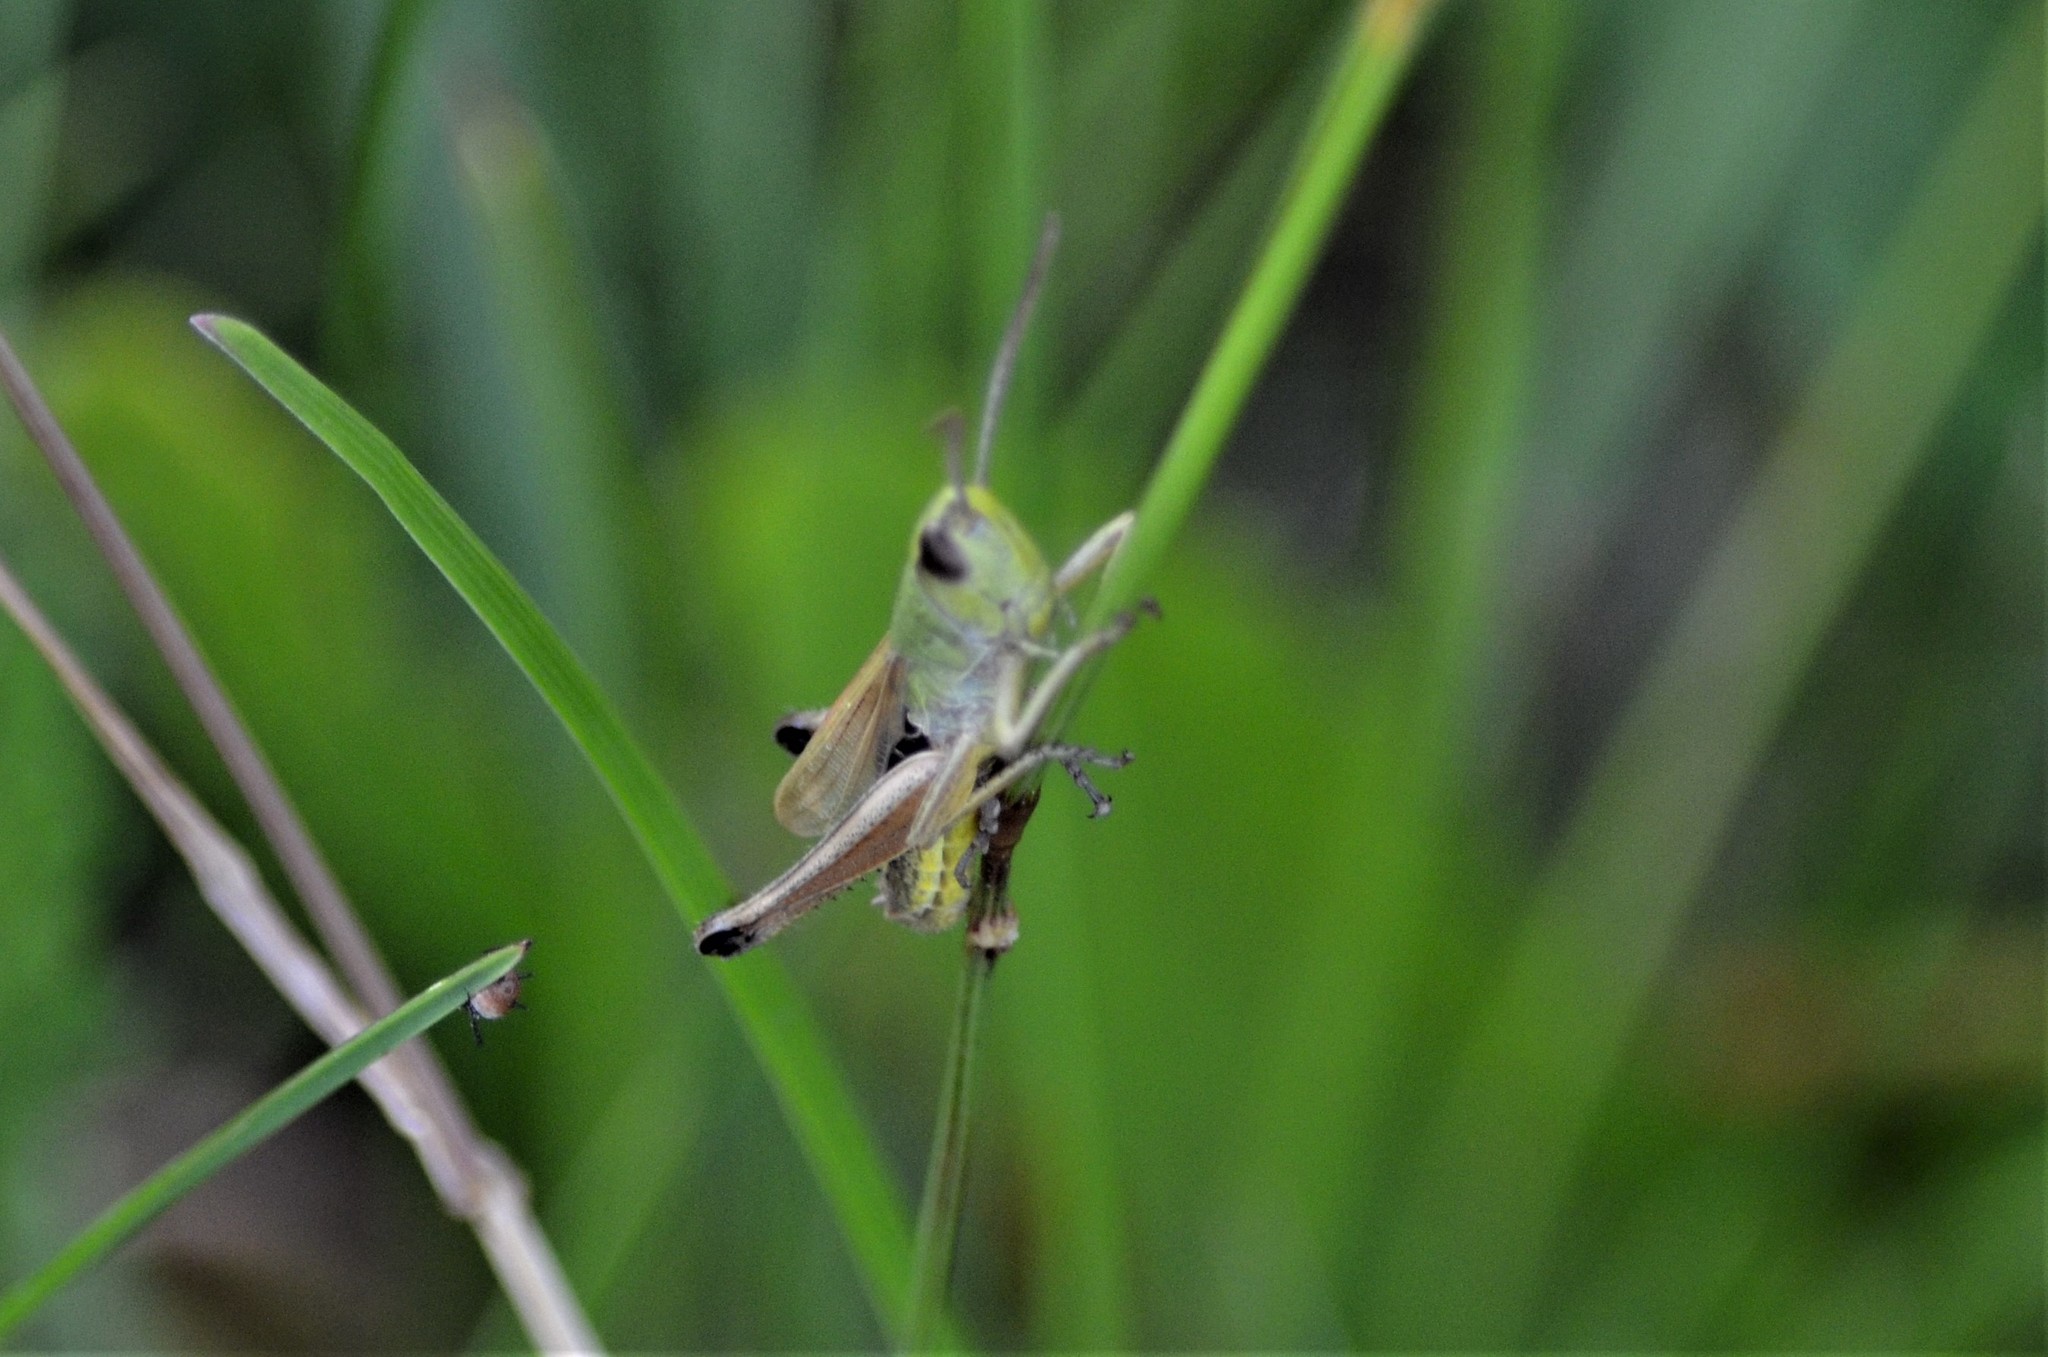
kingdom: Animalia
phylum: Arthropoda
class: Insecta
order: Orthoptera
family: Acrididae
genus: Pseudochorthippus
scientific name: Pseudochorthippus parallelus
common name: Meadow grasshopper
